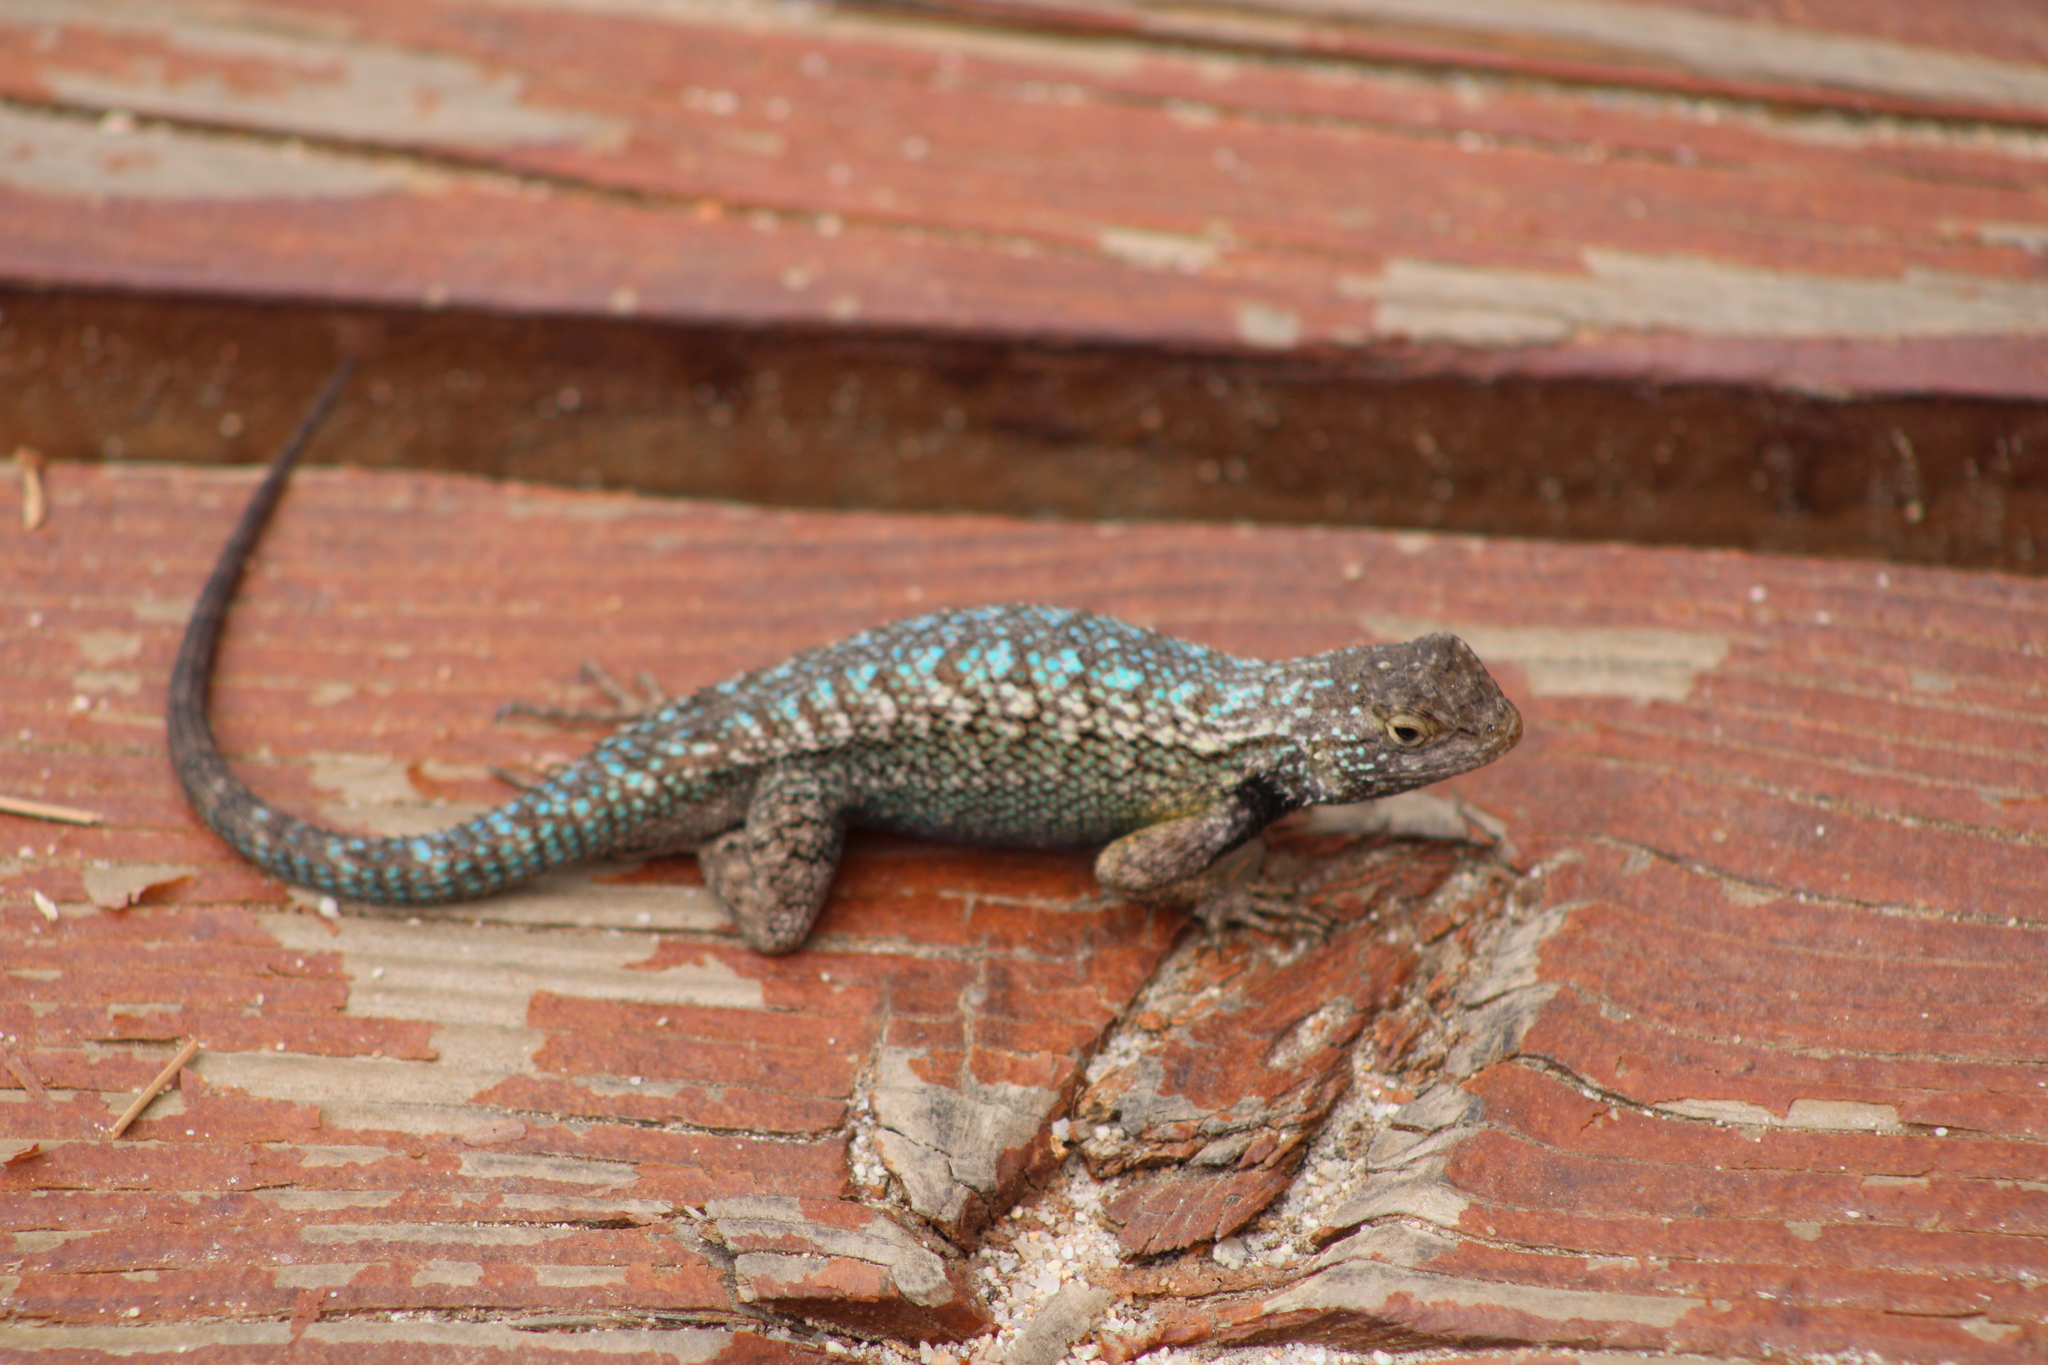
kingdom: Animalia
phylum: Chordata
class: Squamata
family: Phrynosomatidae
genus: Sceloporus
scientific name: Sceloporus occidentalis
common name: Western fence lizard
